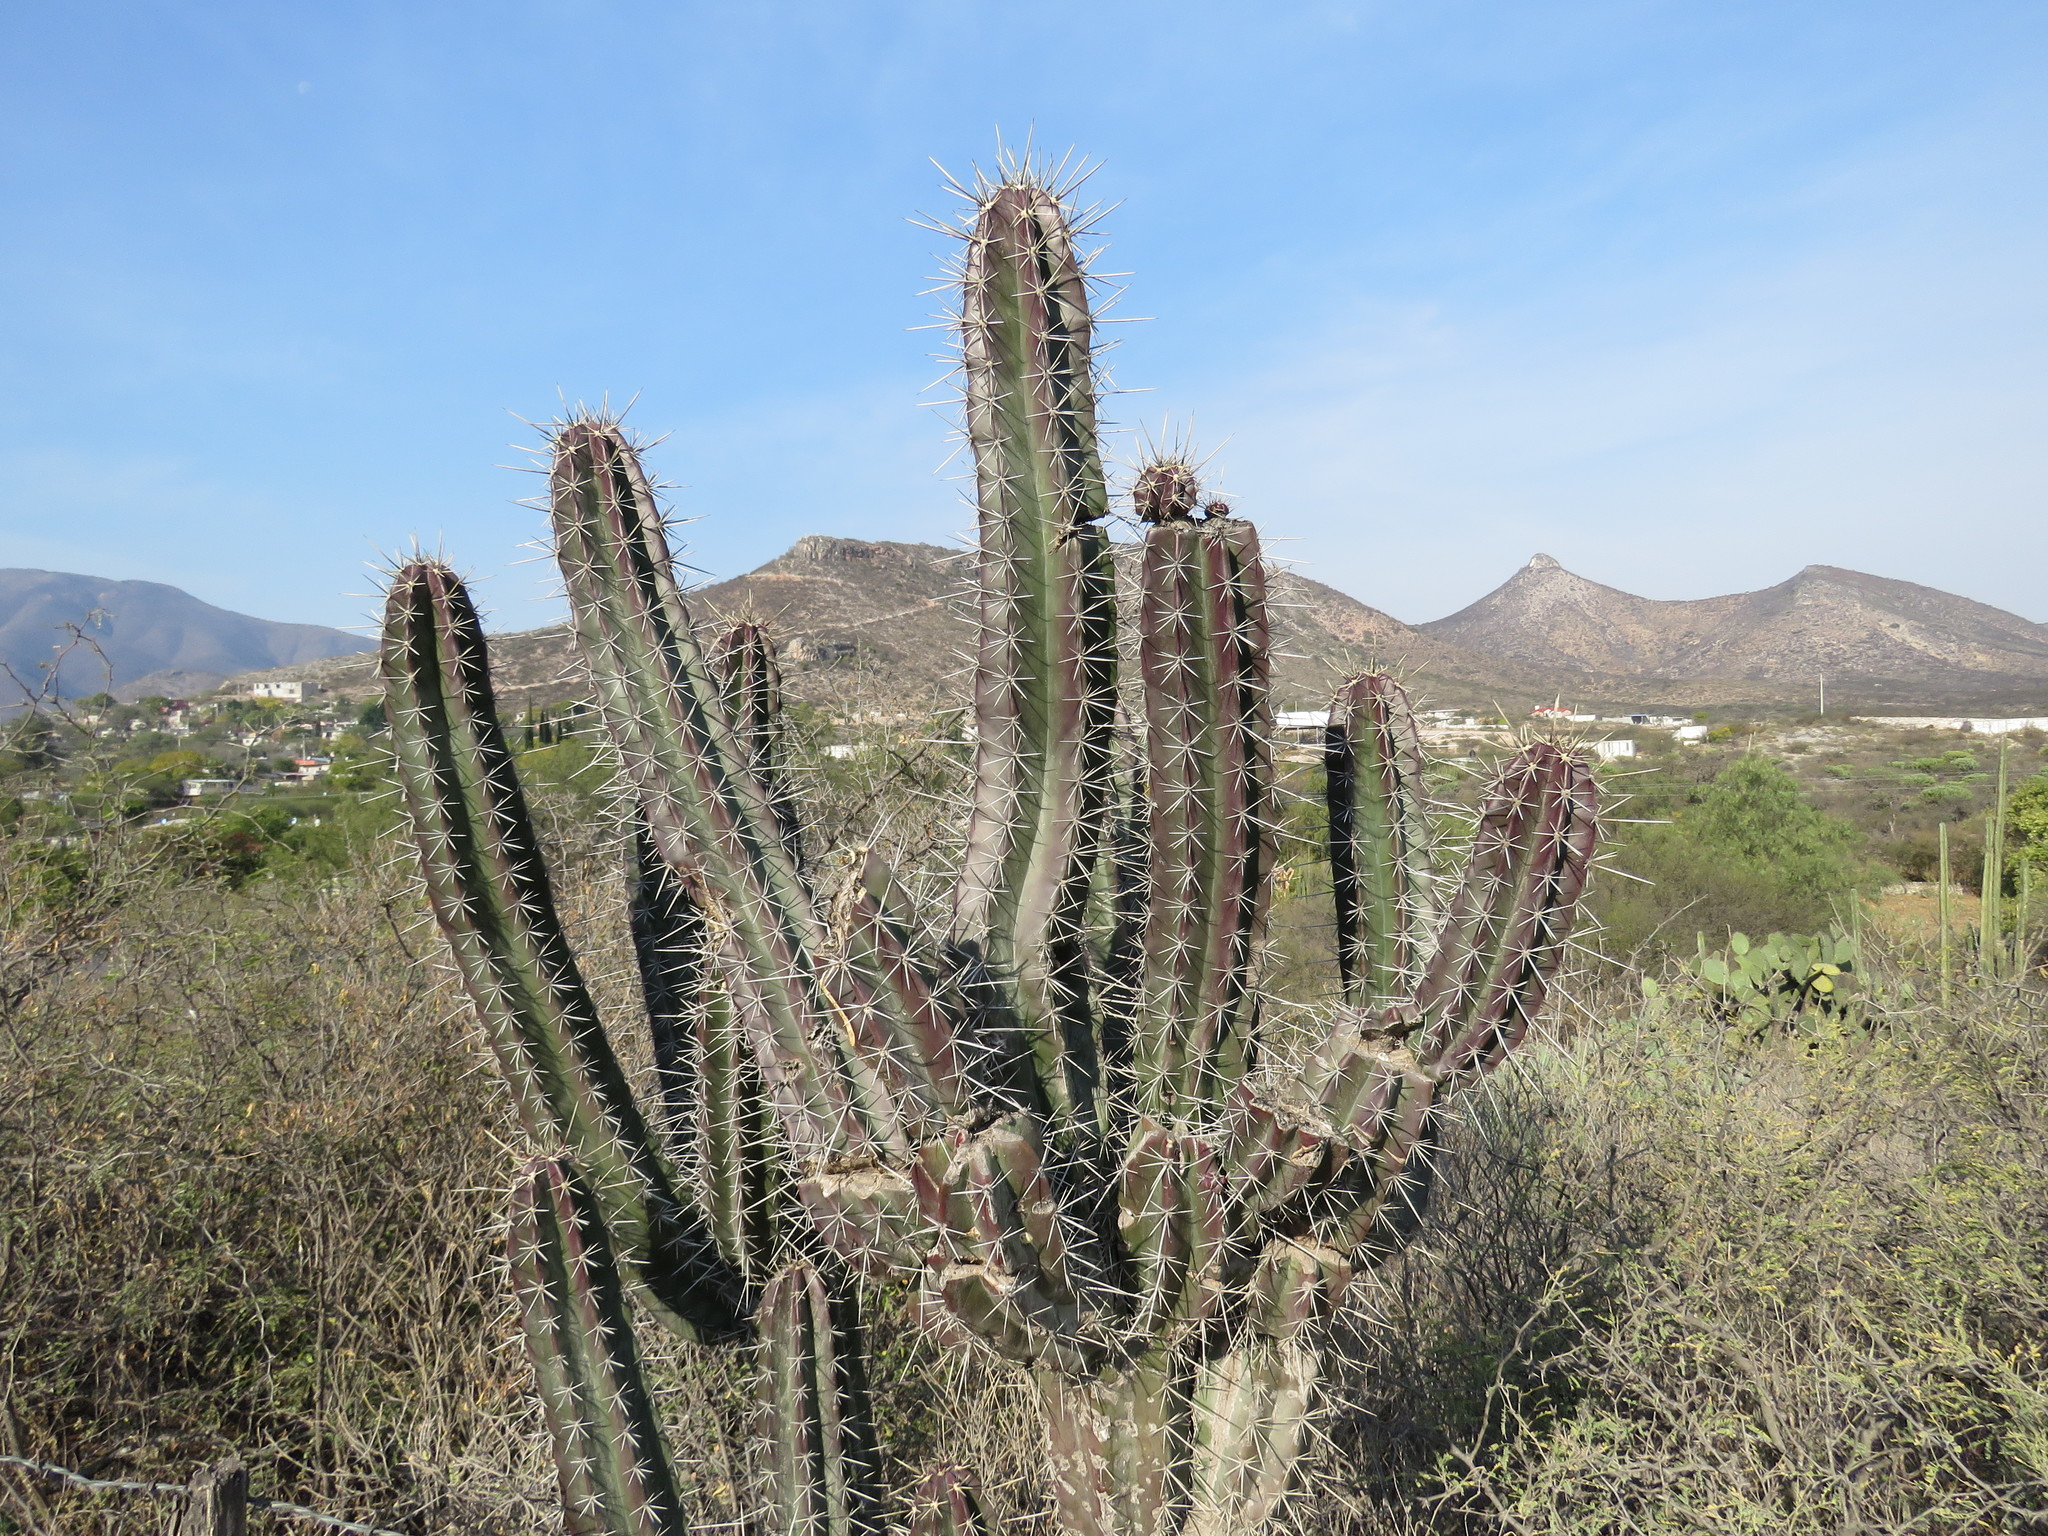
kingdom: Plantae
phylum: Tracheophyta
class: Magnoliopsida
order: Caryophyllales
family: Cactaceae
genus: Stenocereus
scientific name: Stenocereus queretaroensis
